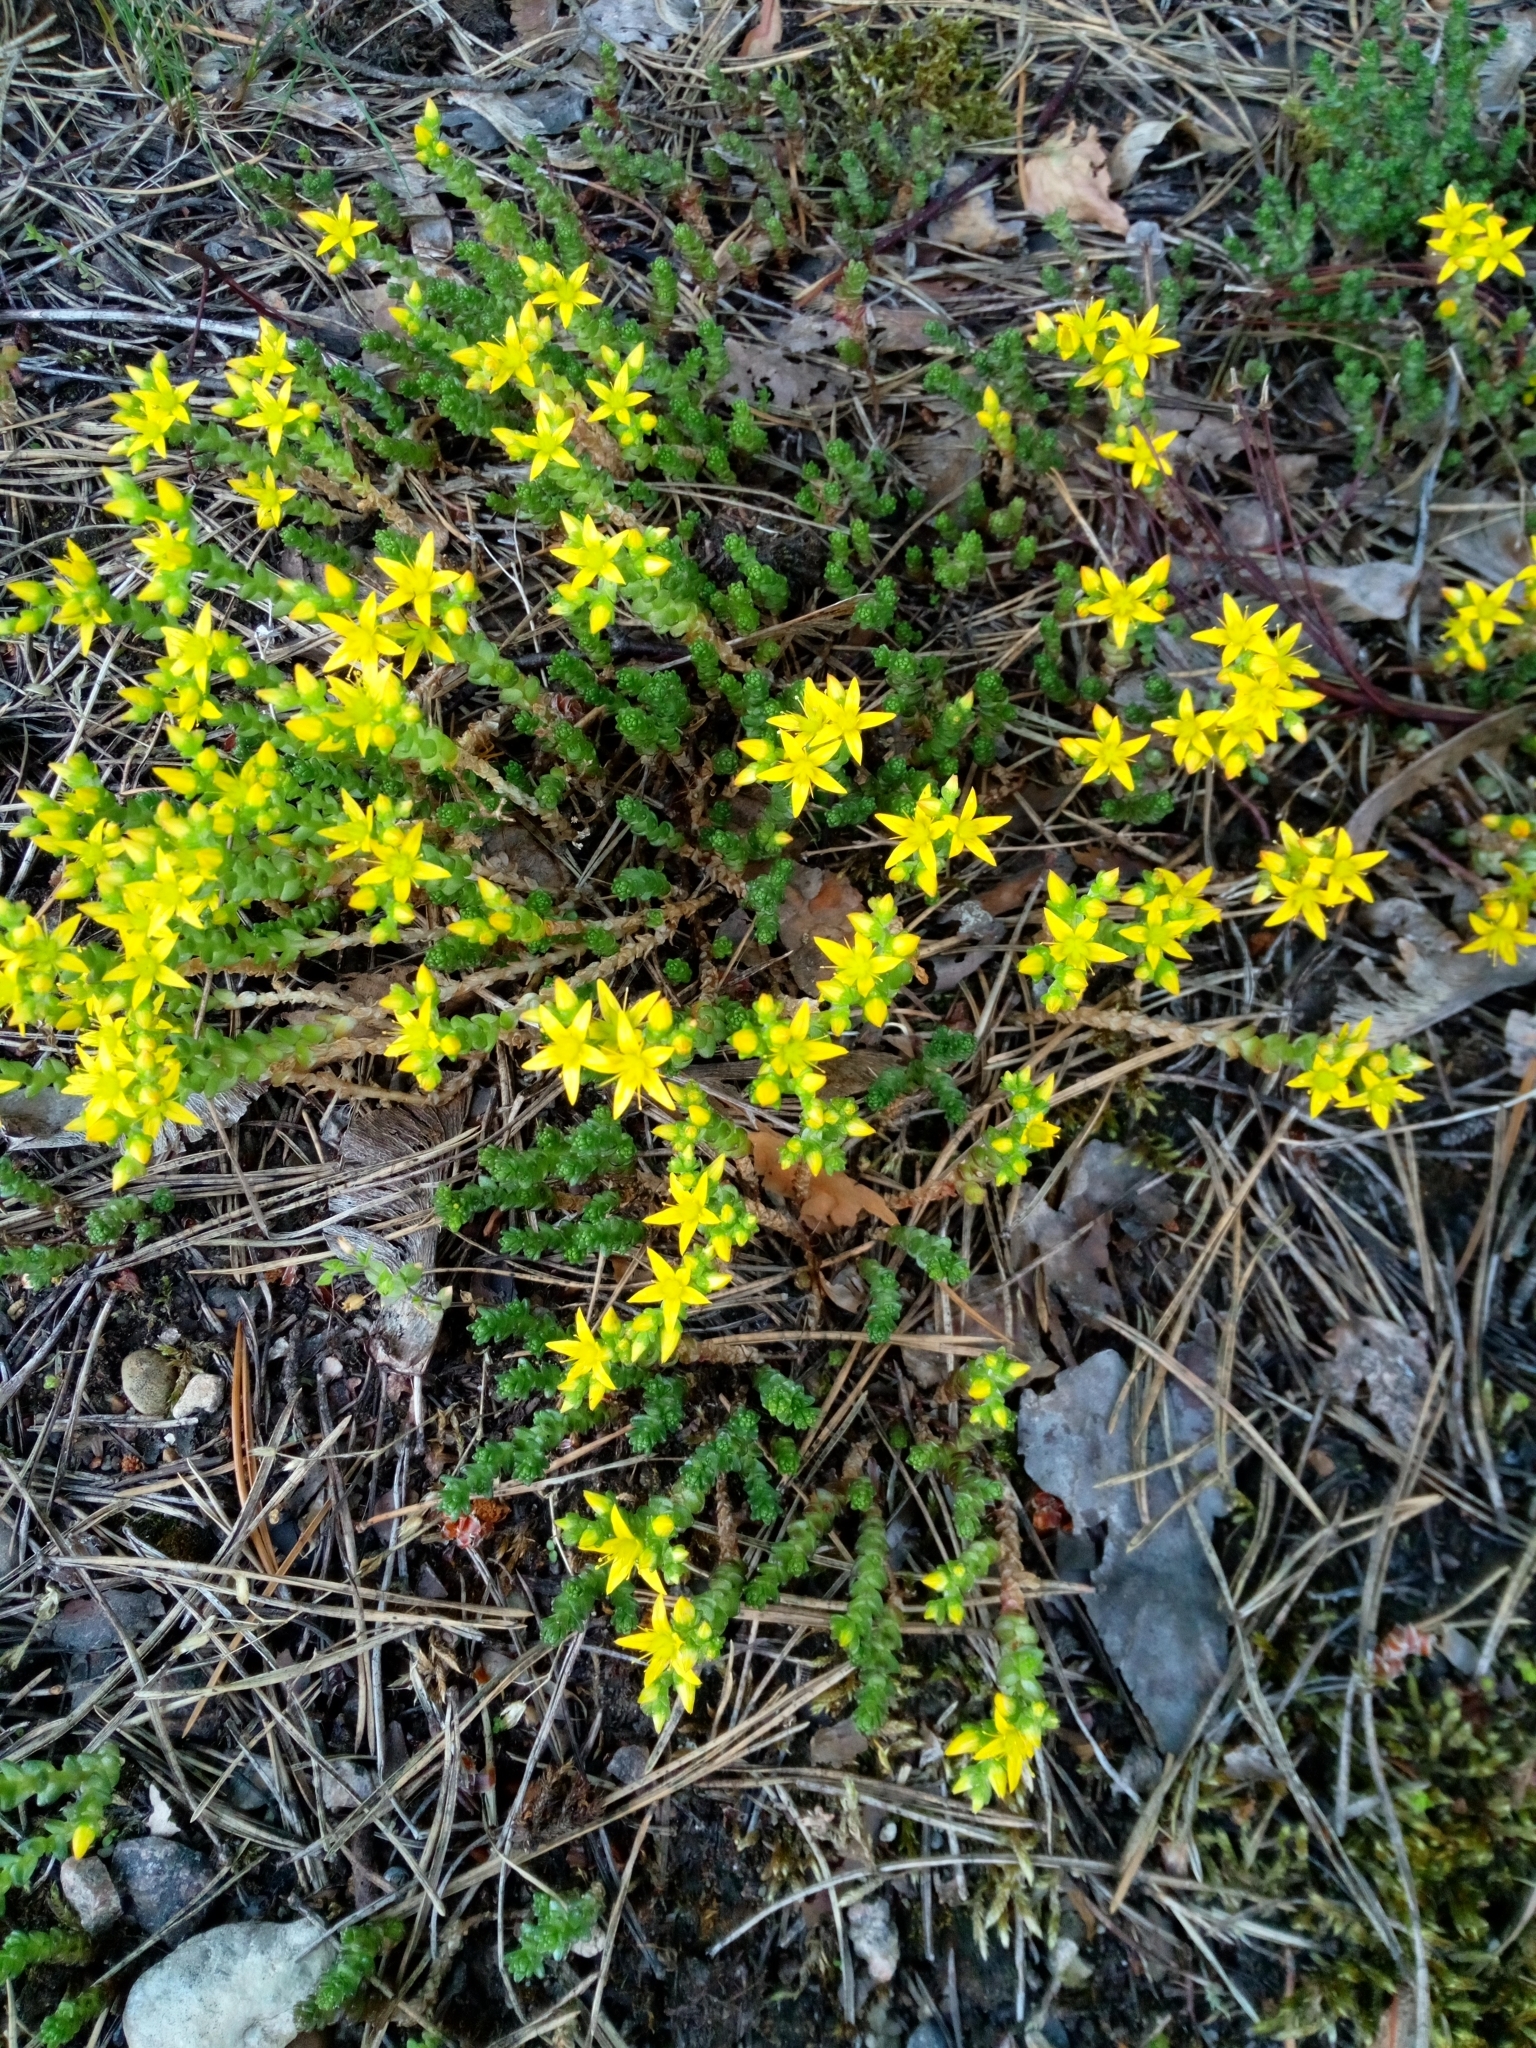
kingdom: Plantae
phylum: Tracheophyta
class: Magnoliopsida
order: Saxifragales
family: Crassulaceae
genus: Sedum
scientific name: Sedum acre
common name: Biting stonecrop
